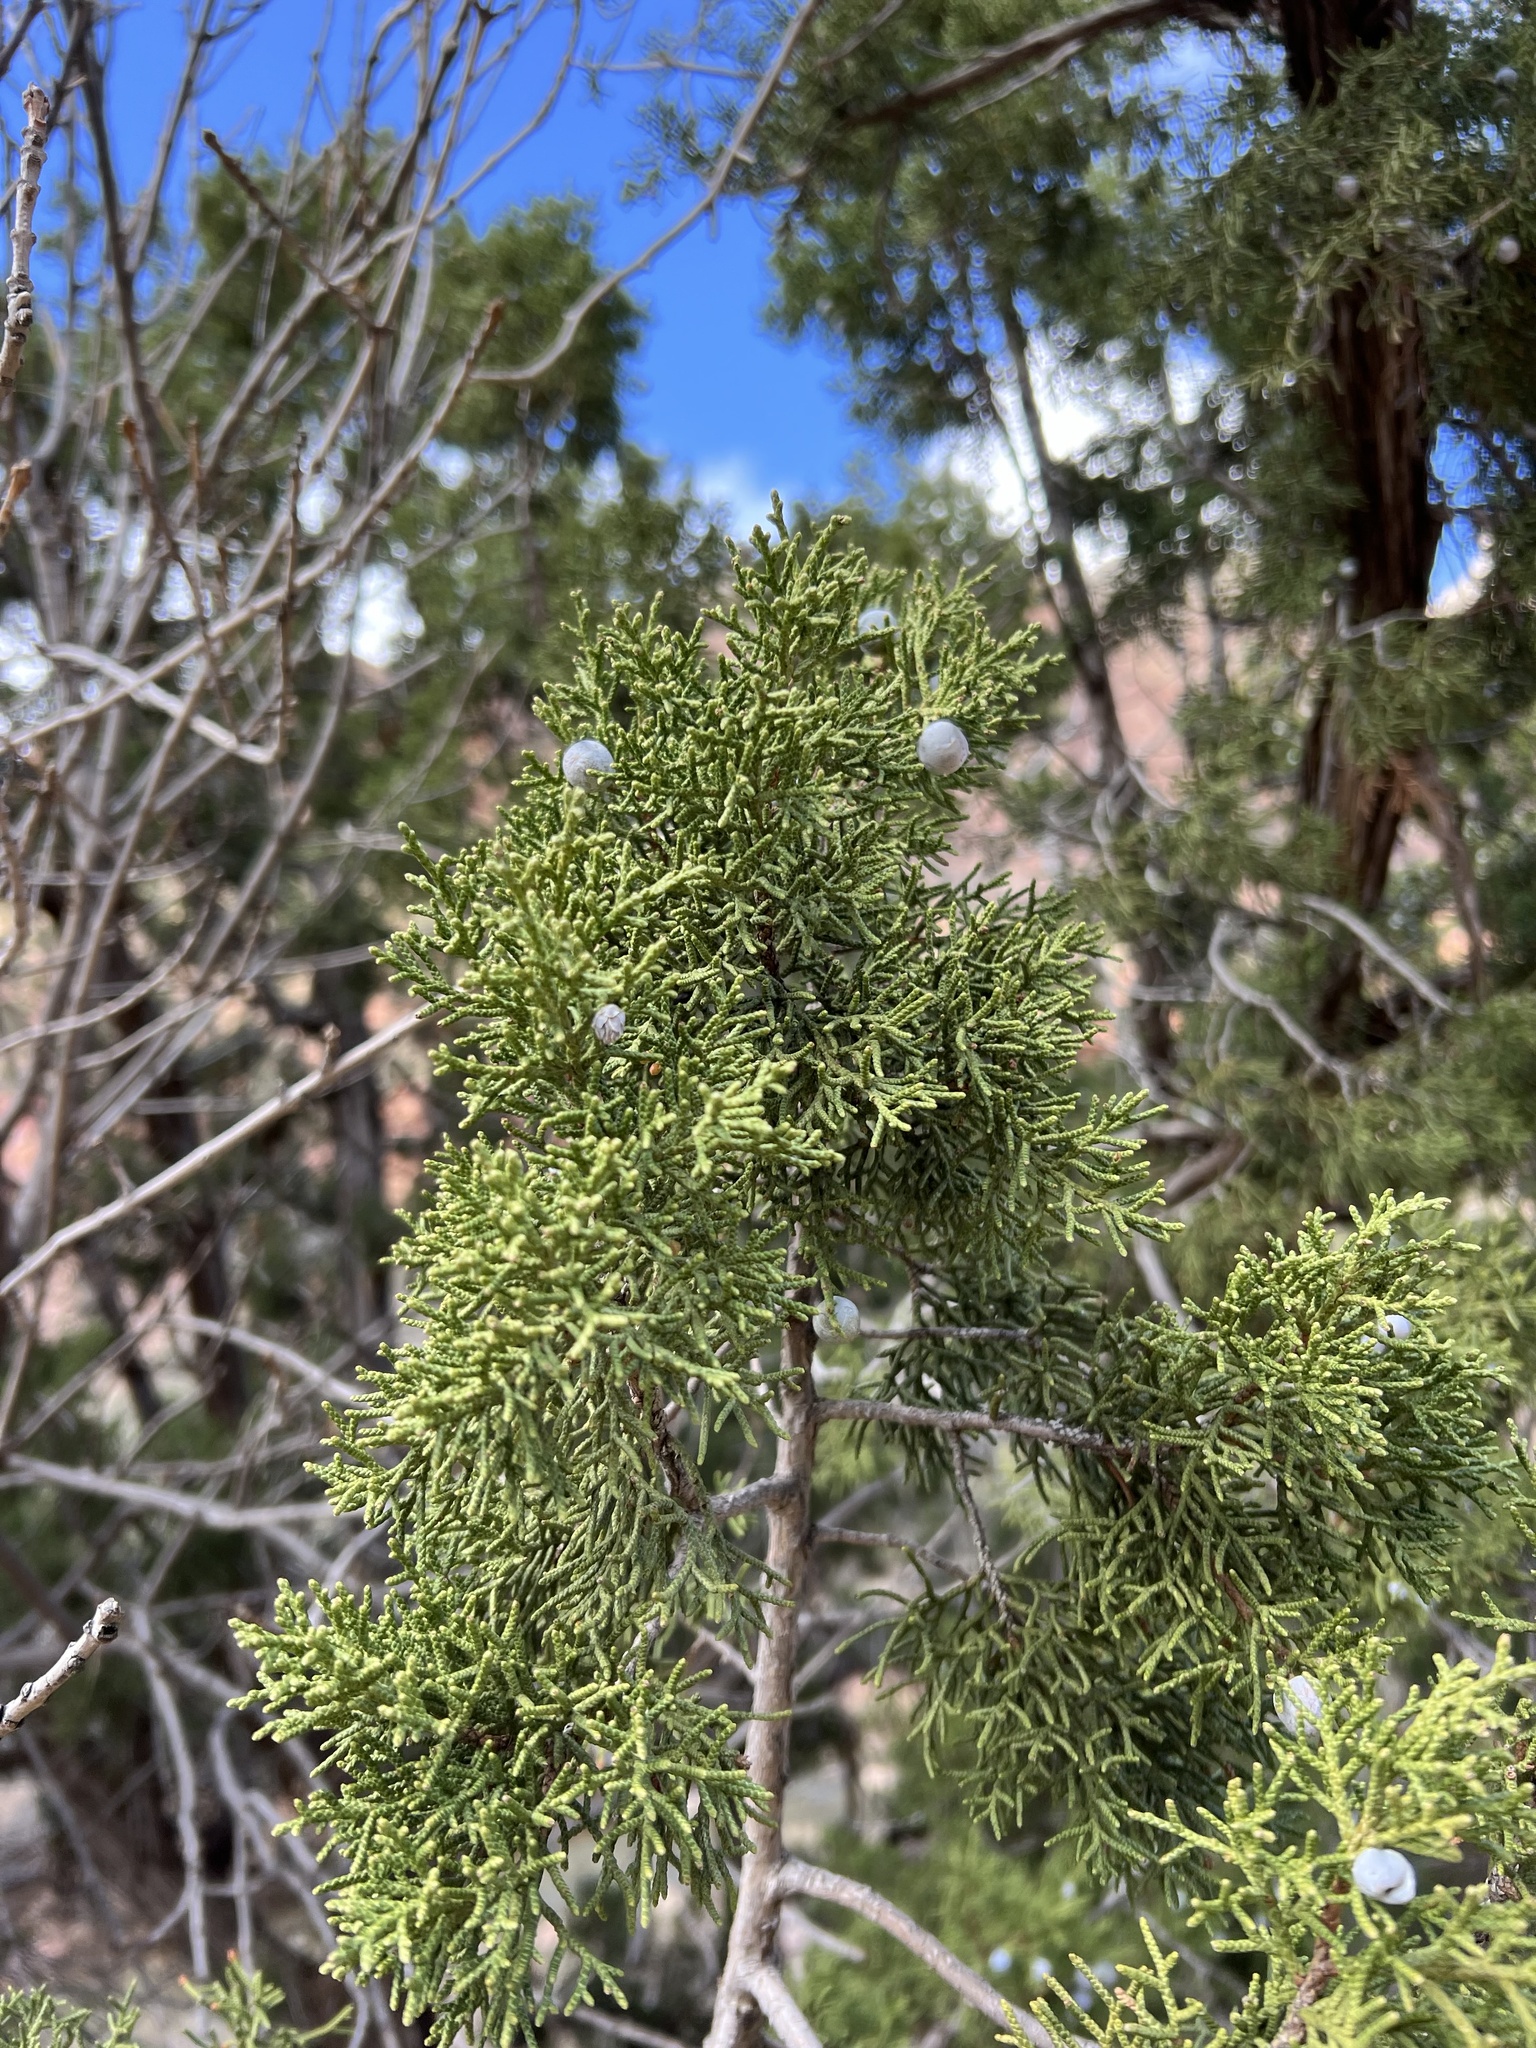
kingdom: Plantae
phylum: Tracheophyta
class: Pinopsida
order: Pinales
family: Cupressaceae
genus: Juniperus
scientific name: Juniperus osteosperma
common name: Utah juniper
